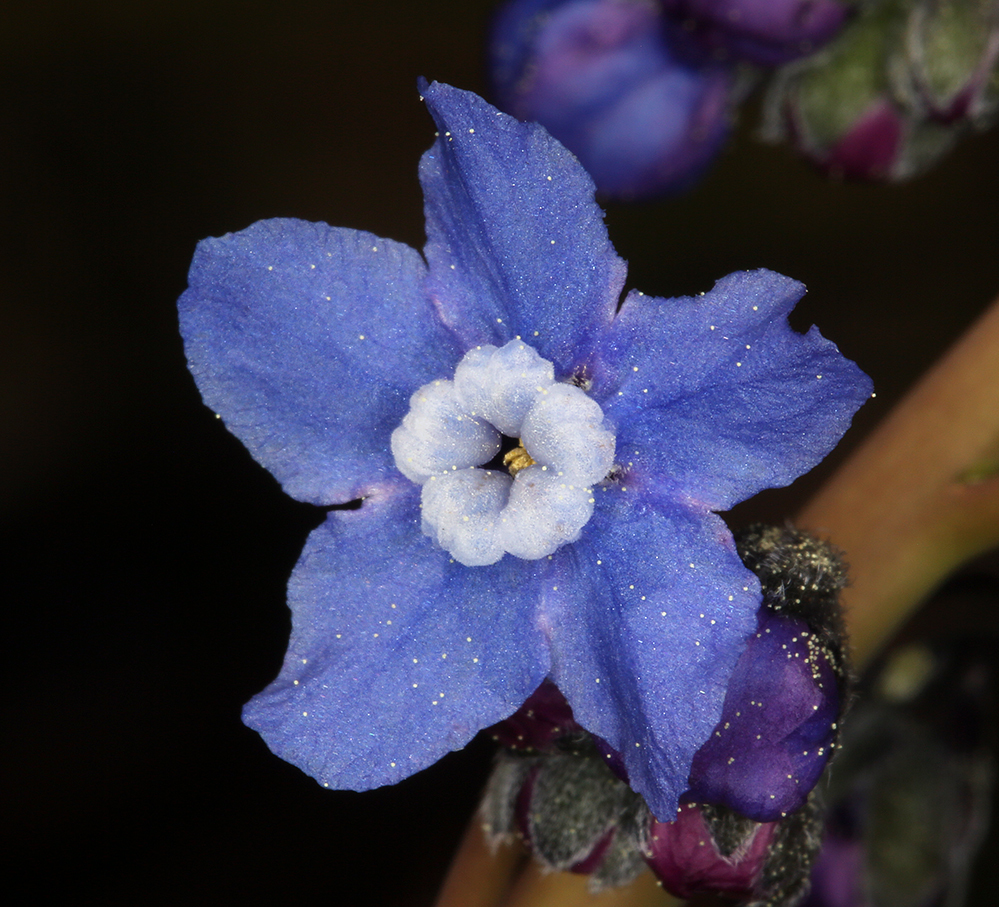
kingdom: Plantae
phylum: Tracheophyta
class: Magnoliopsida
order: Boraginales
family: Boraginaceae
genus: Adelinia
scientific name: Adelinia grande
